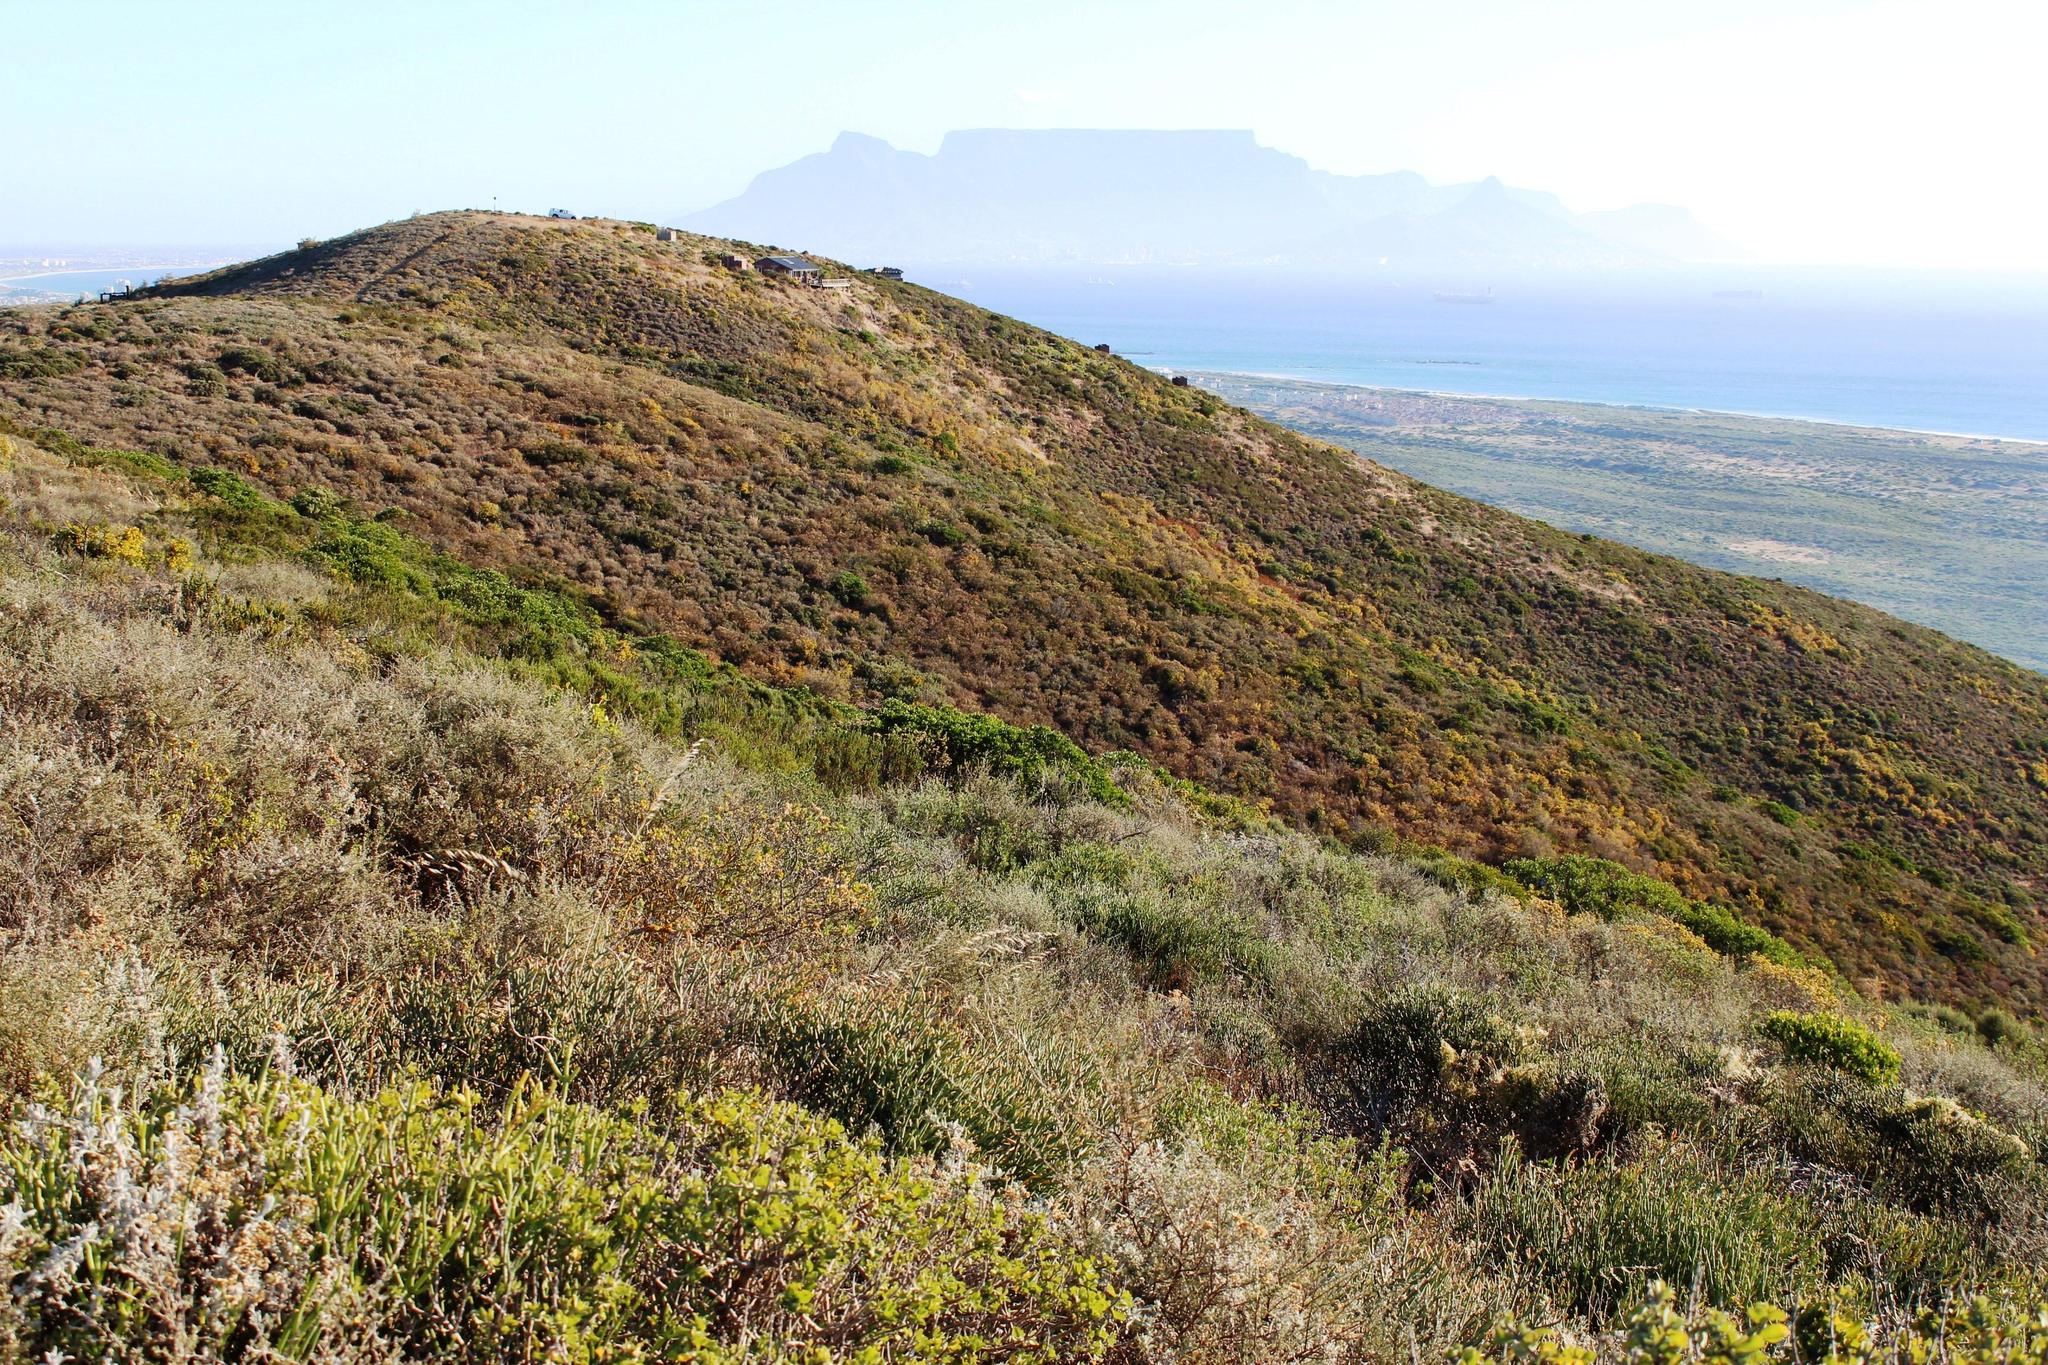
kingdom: Plantae
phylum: Tracheophyta
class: Magnoliopsida
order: Asterales
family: Asteraceae
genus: Dicerothamnus
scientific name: Dicerothamnus rhinocerotis
